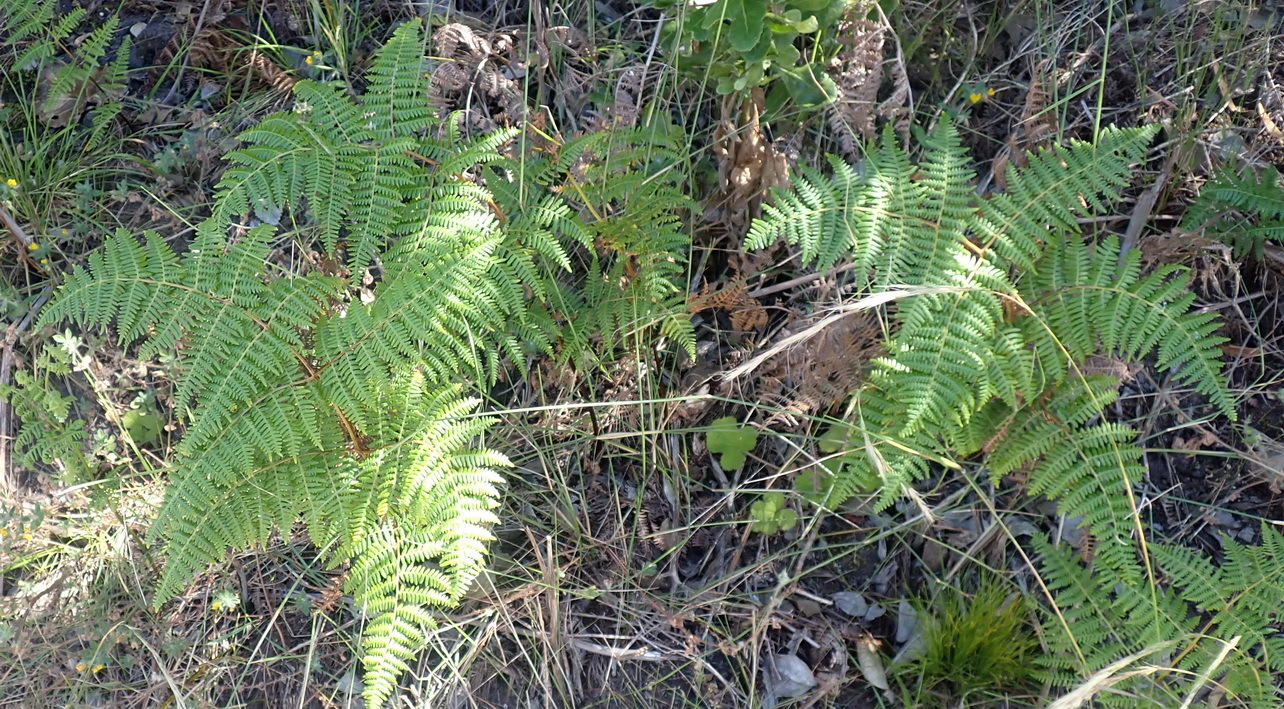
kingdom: Plantae
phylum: Tracheophyta
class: Polypodiopsida
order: Polypodiales
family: Dennstaedtiaceae
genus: Pteridium
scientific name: Pteridium aquilinum
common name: Bracken
